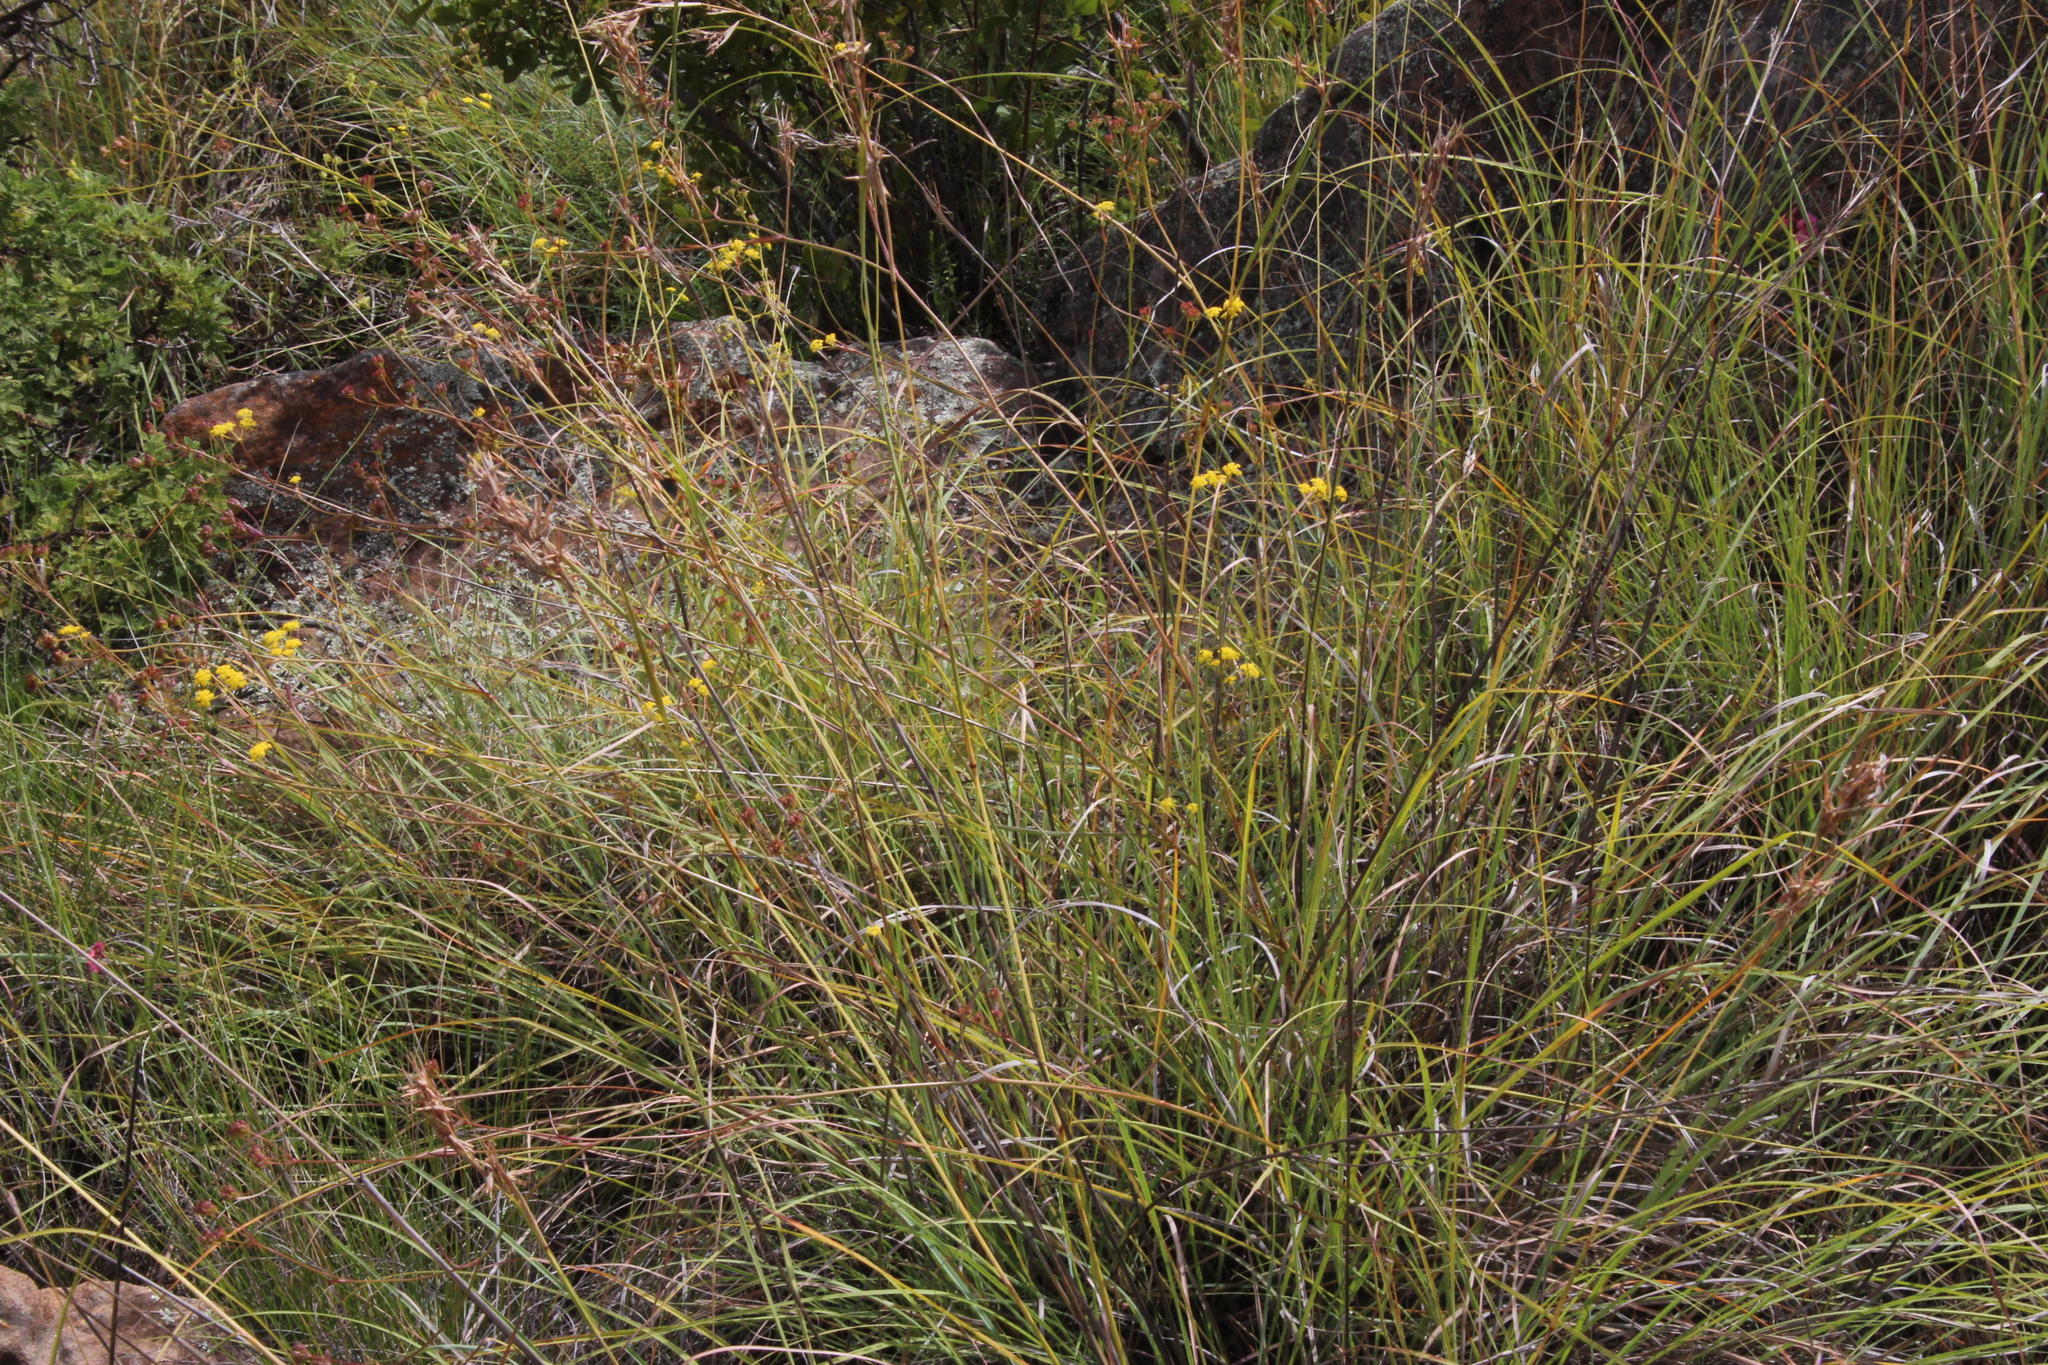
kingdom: Plantae
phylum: Tracheophyta
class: Magnoliopsida
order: Apiales
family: Apiaceae
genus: Bupleurum
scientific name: Bupleurum mundii
